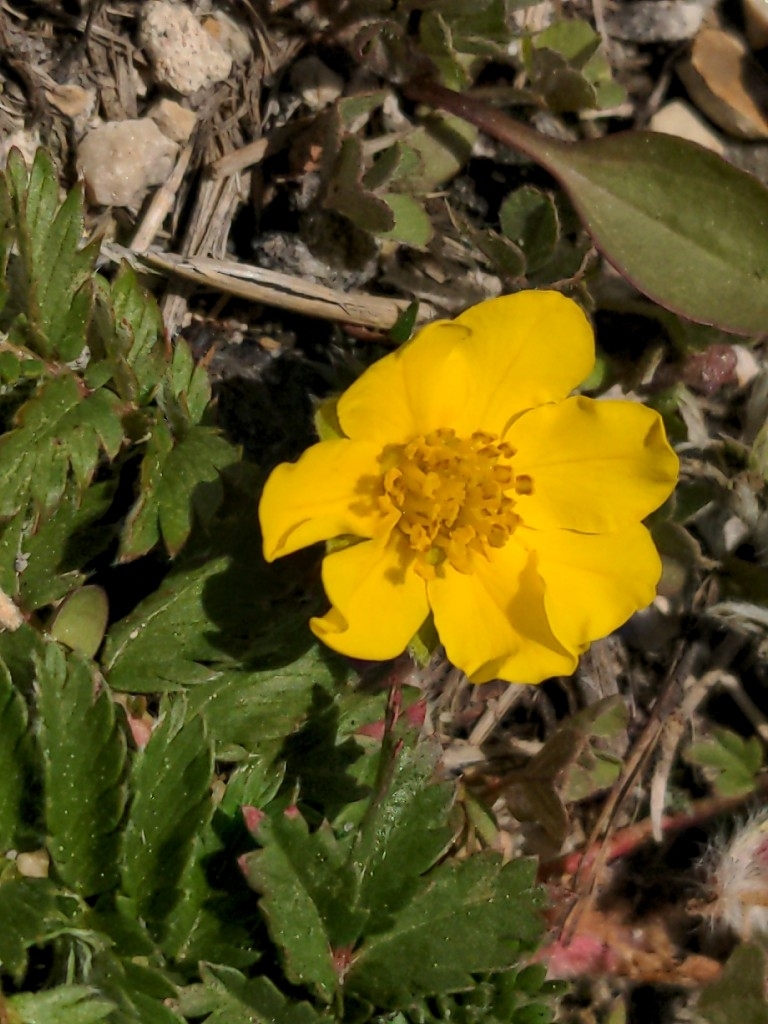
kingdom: Plantae
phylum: Tracheophyta
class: Magnoliopsida
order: Rosales
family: Rosaceae
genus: Argentina
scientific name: Argentina anserina
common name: Common silverweed
